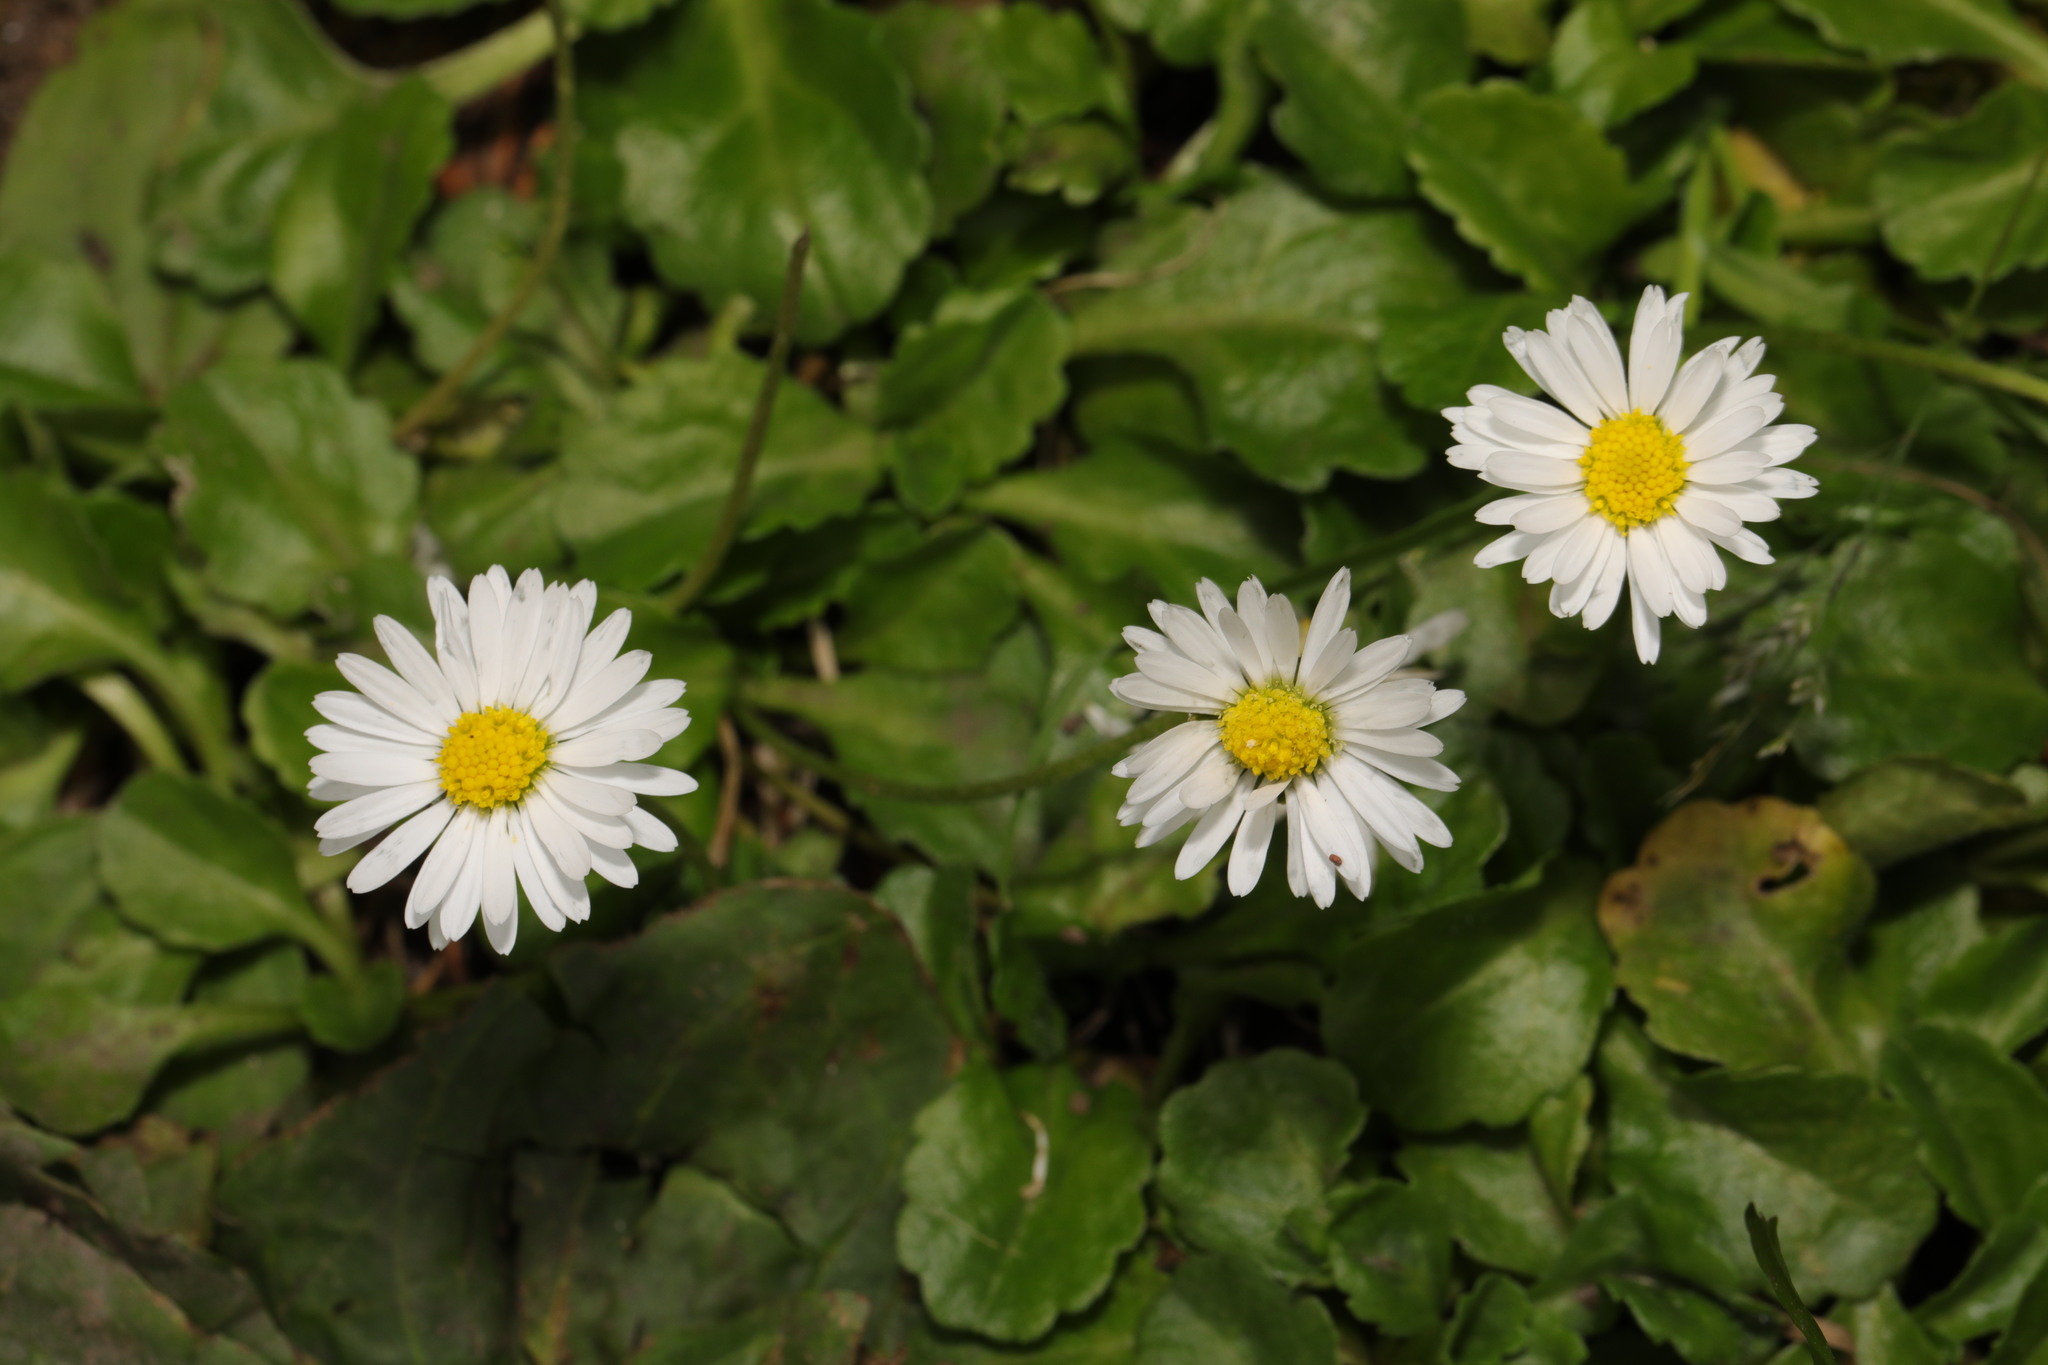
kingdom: Plantae
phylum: Tracheophyta
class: Magnoliopsida
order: Asterales
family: Asteraceae
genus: Bellis
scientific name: Bellis perennis
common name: Lawndaisy
